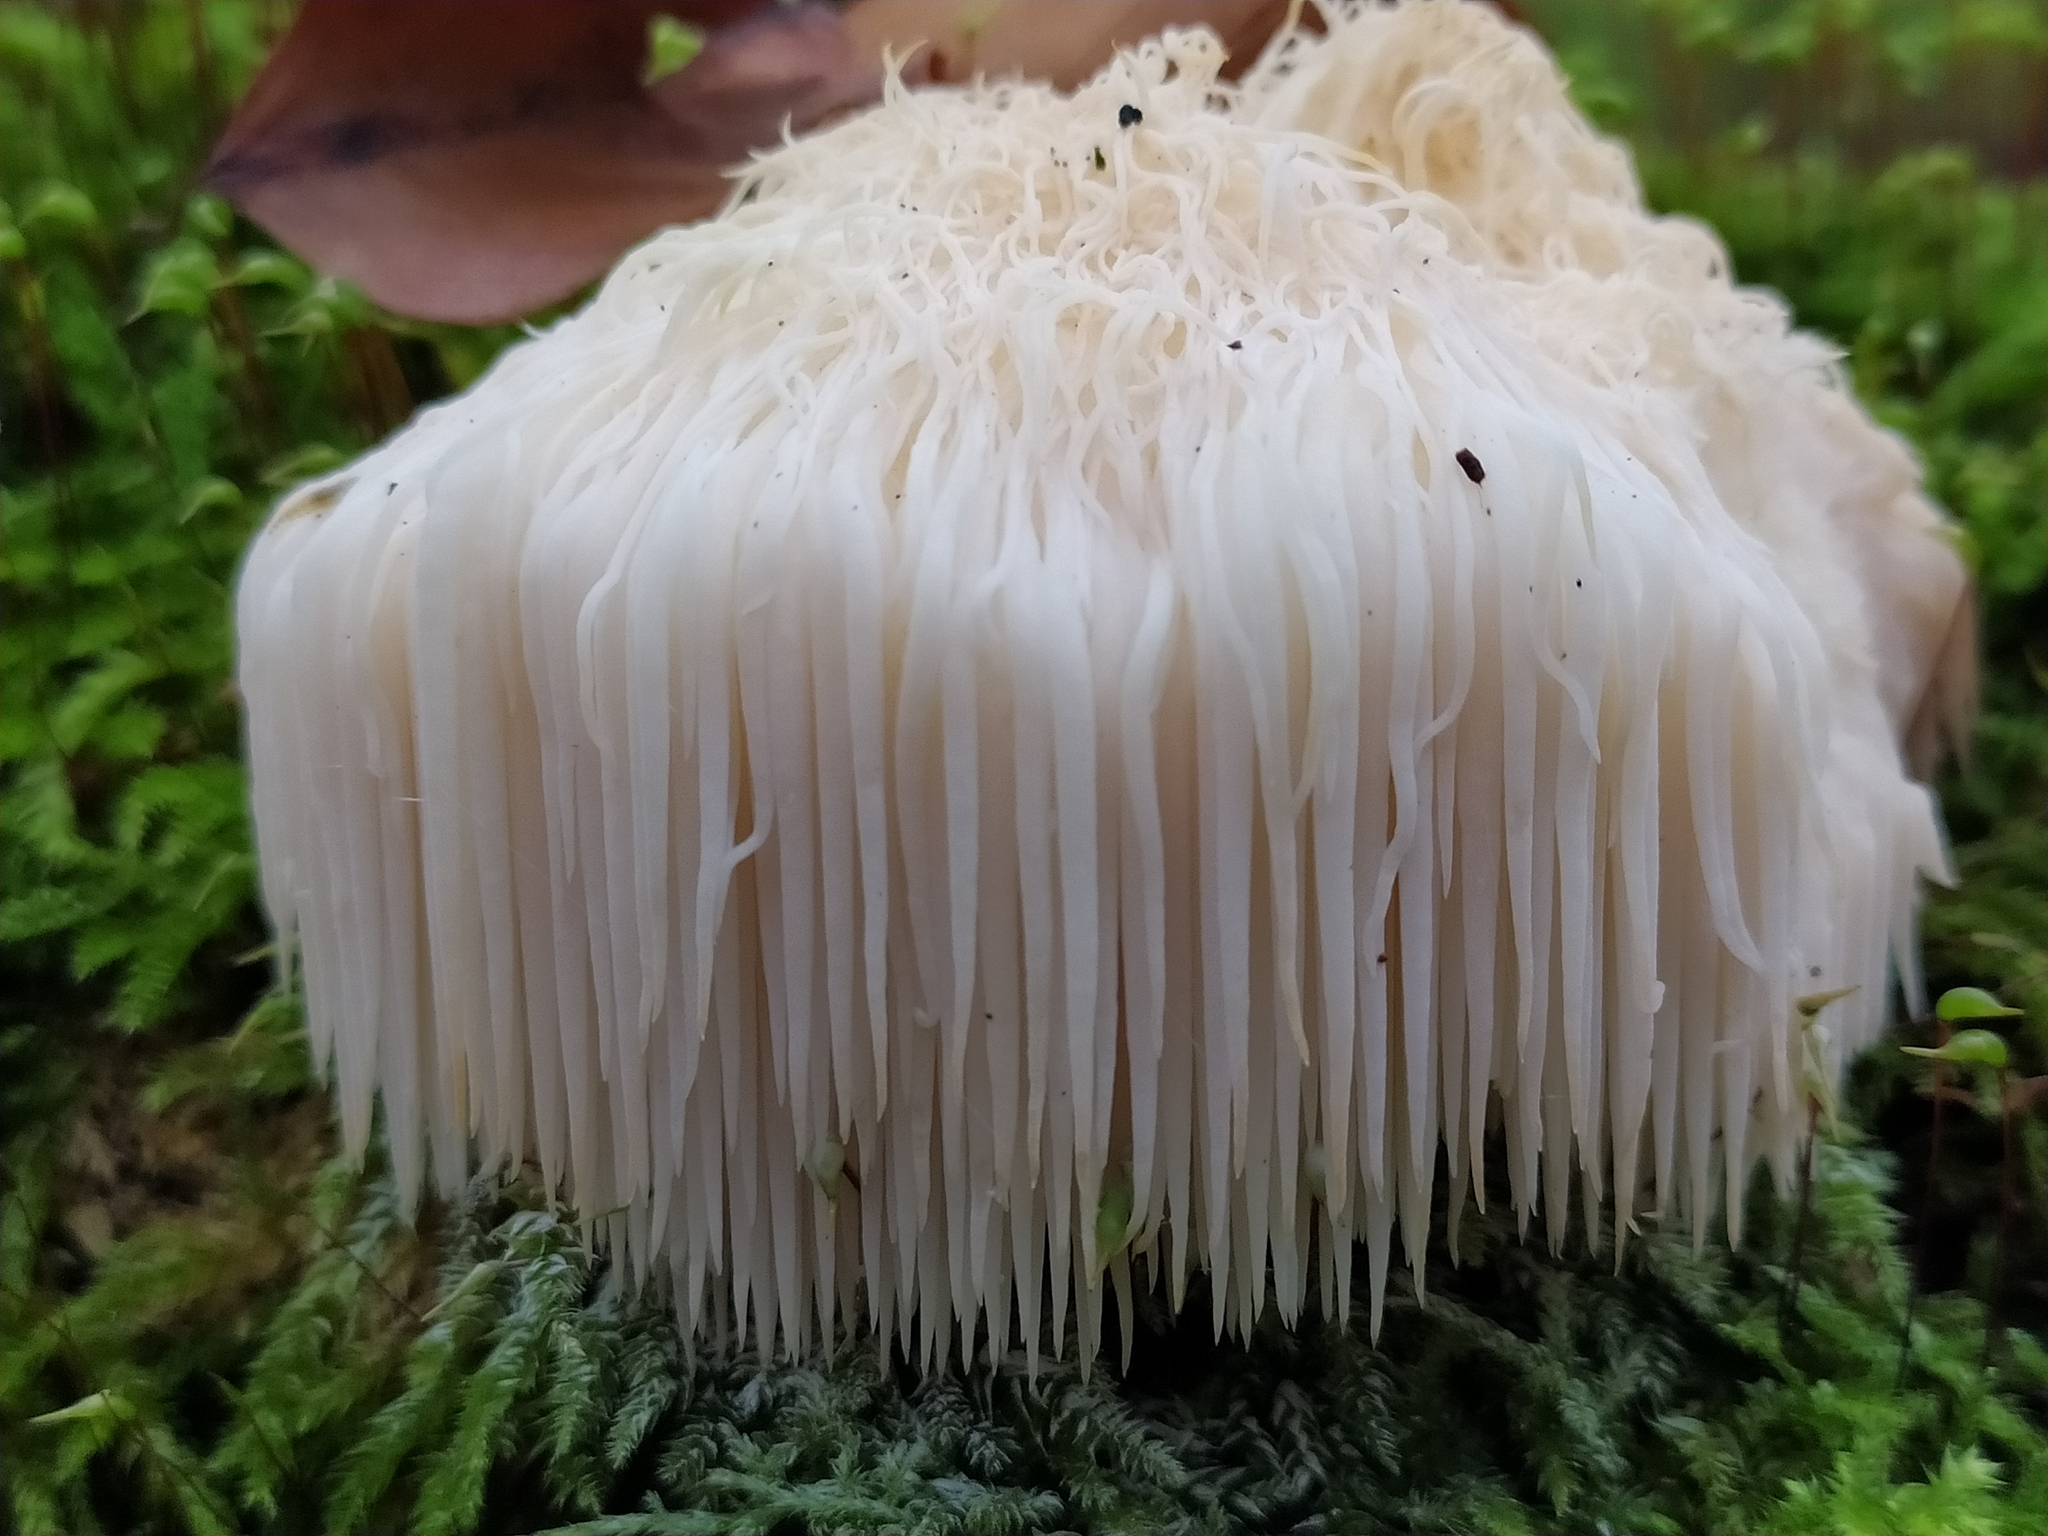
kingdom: Fungi
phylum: Basidiomycota
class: Agaricomycetes
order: Russulales
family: Hericiaceae
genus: Hericium
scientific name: Hericium erinaceus
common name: Bearded tooth
